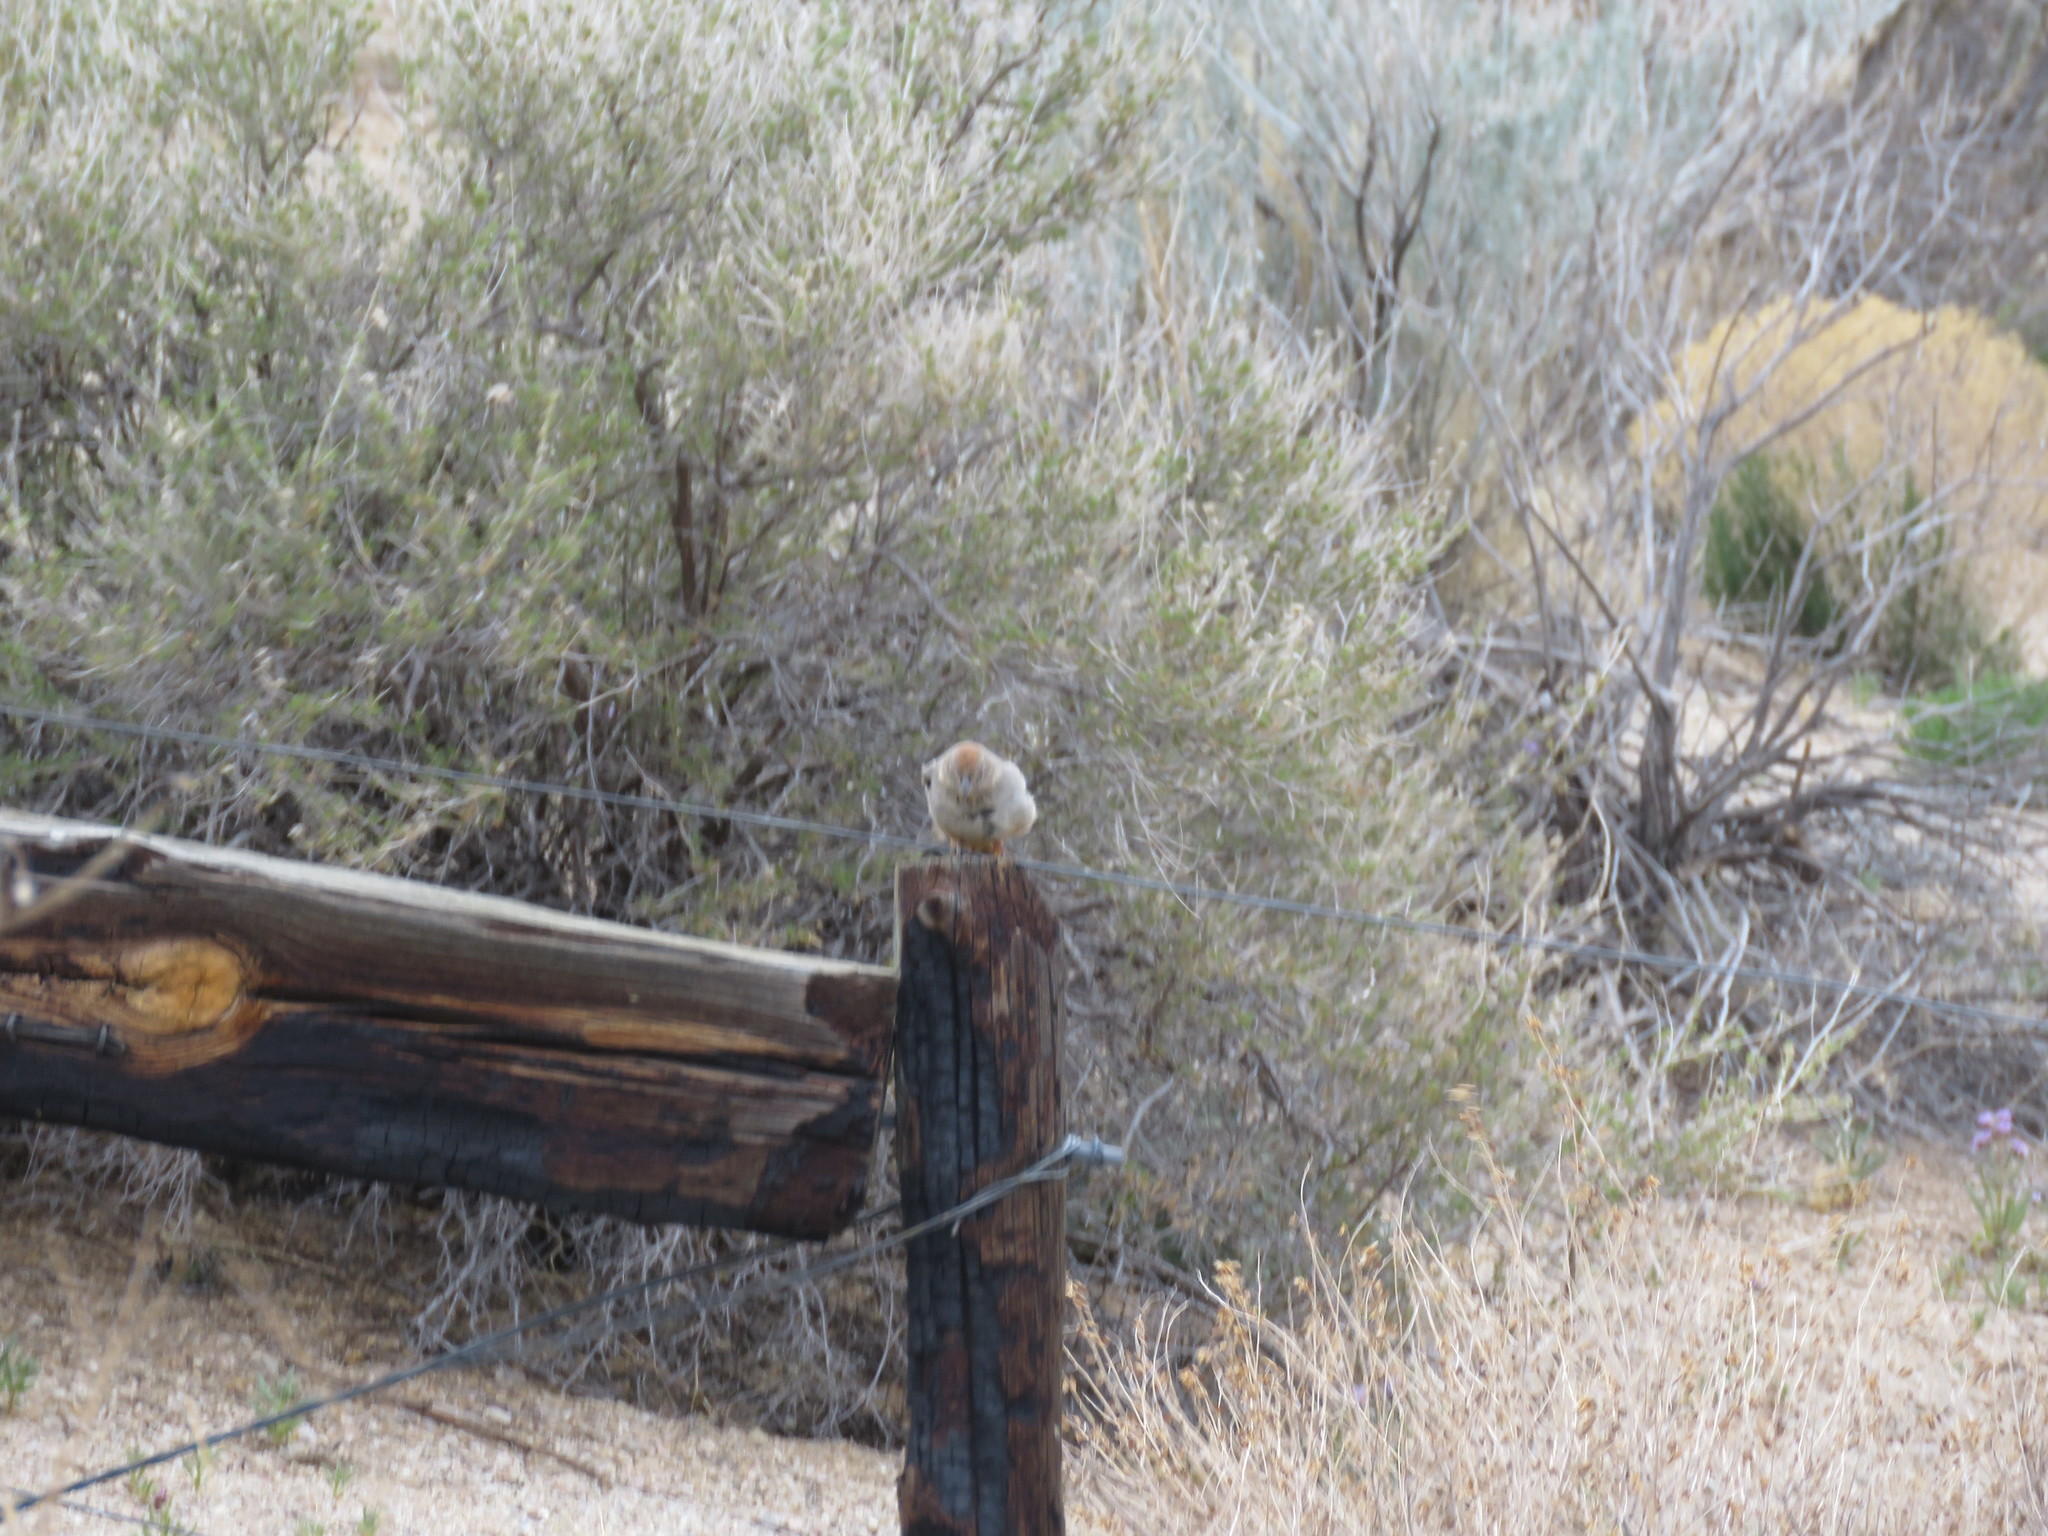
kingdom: Animalia
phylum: Chordata
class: Aves
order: Passeriformes
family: Passerellidae
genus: Melozone
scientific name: Melozone fusca
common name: Canyon towhee
